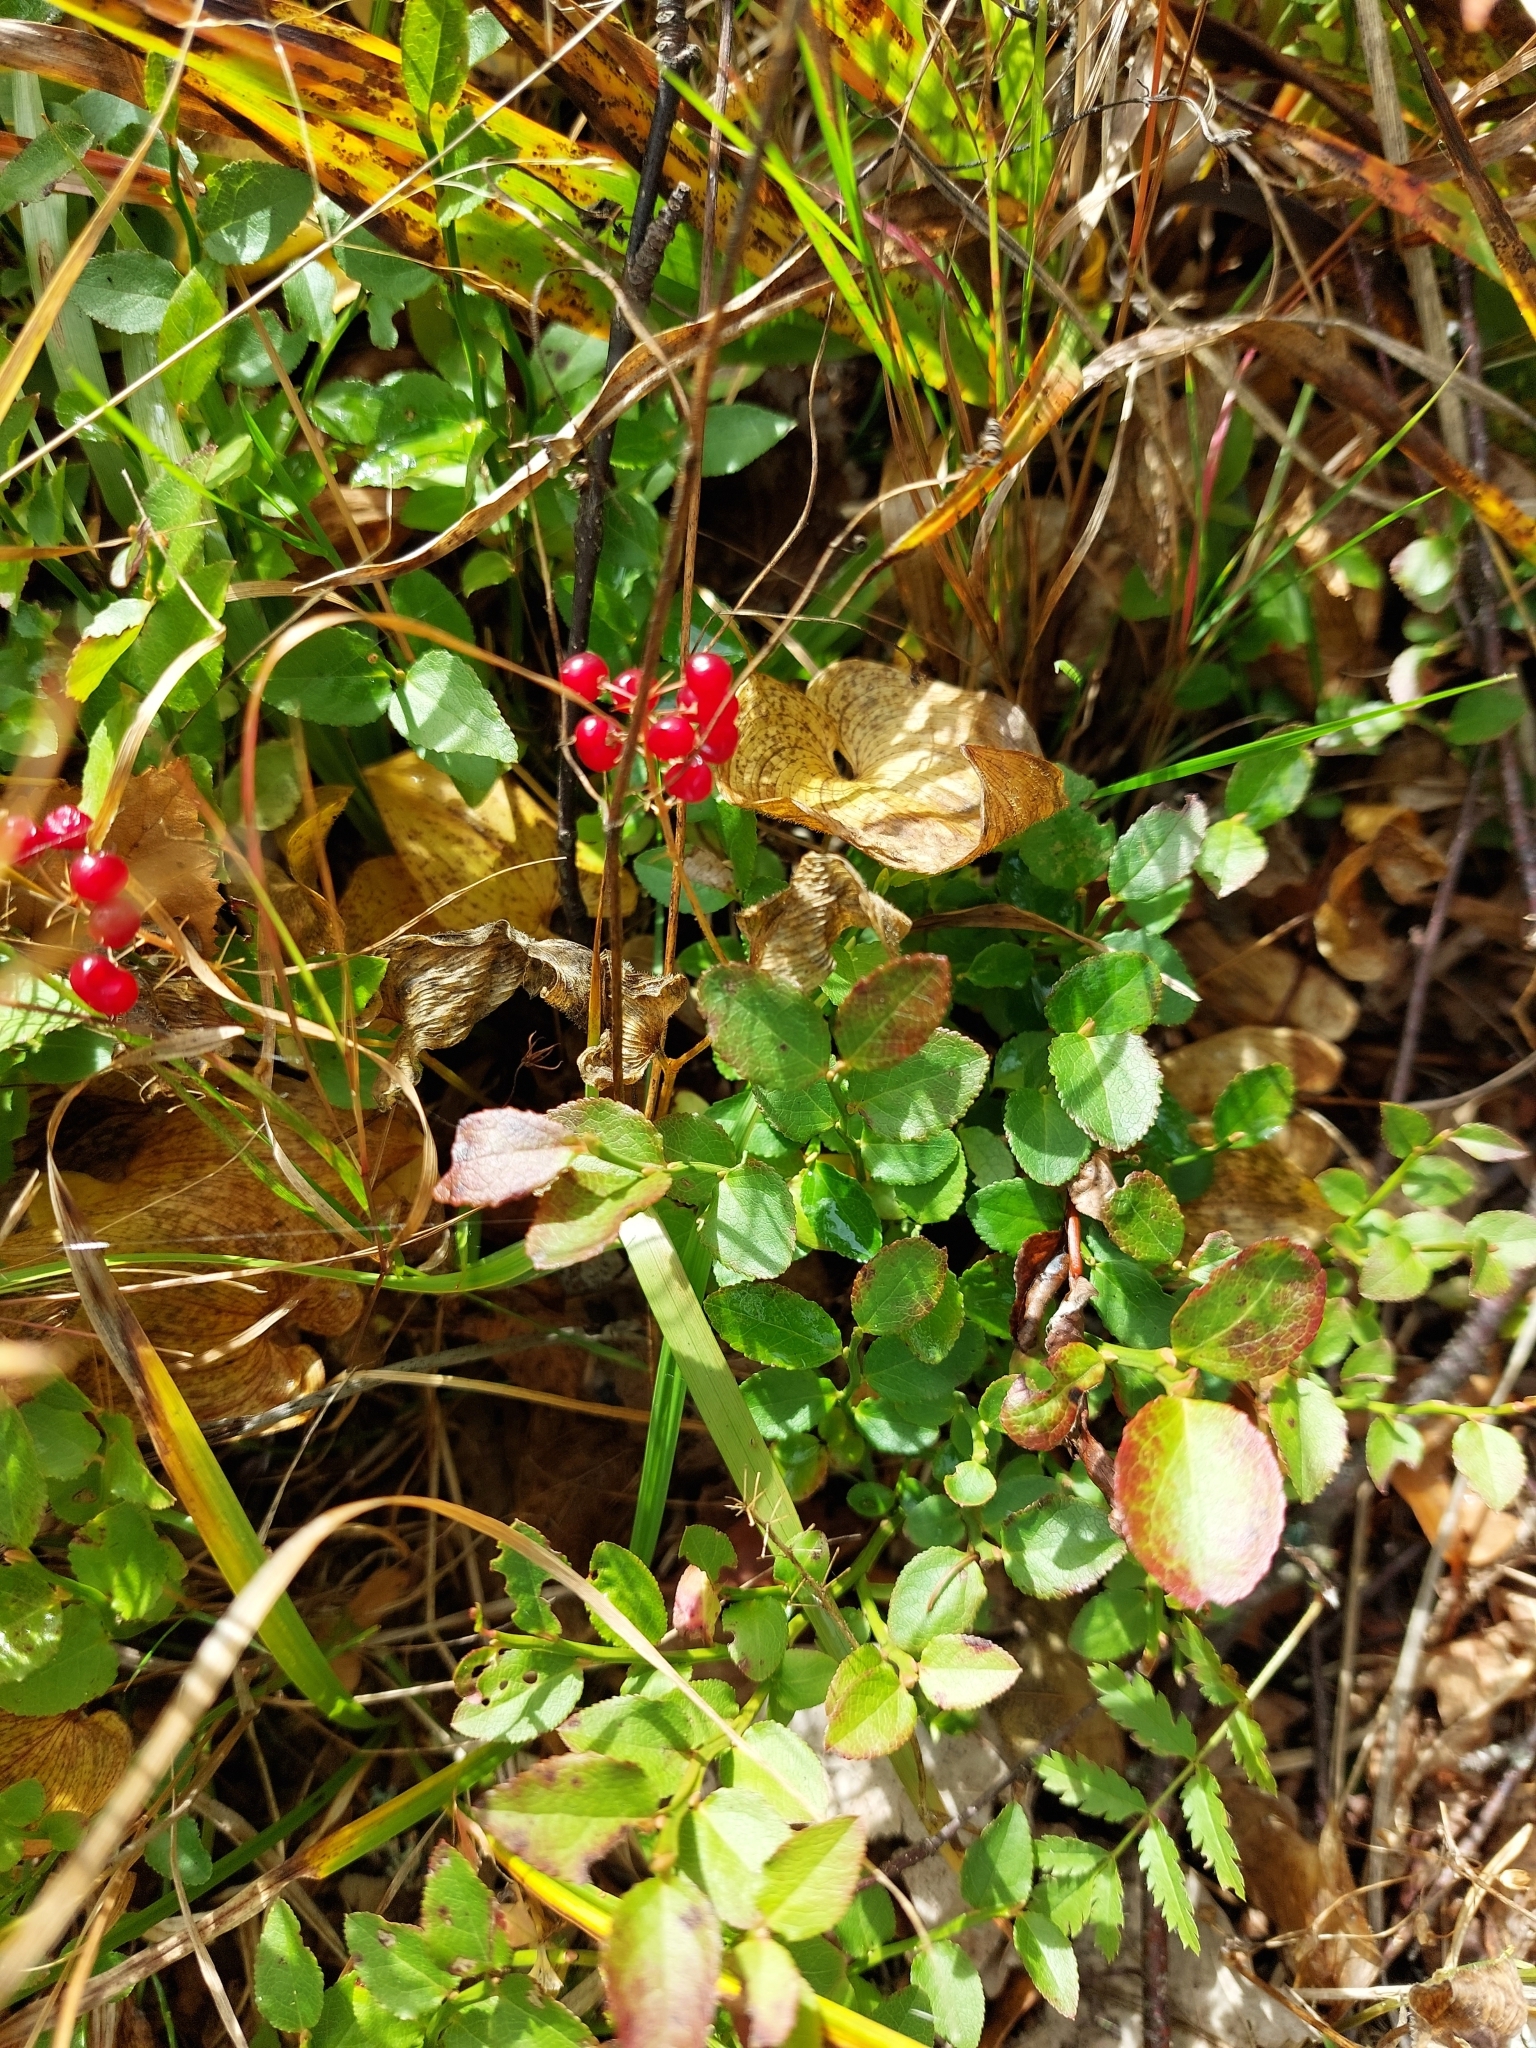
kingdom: Plantae
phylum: Tracheophyta
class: Magnoliopsida
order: Ericales
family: Ericaceae
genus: Vaccinium
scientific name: Vaccinium myrtillus
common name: Bilberry
